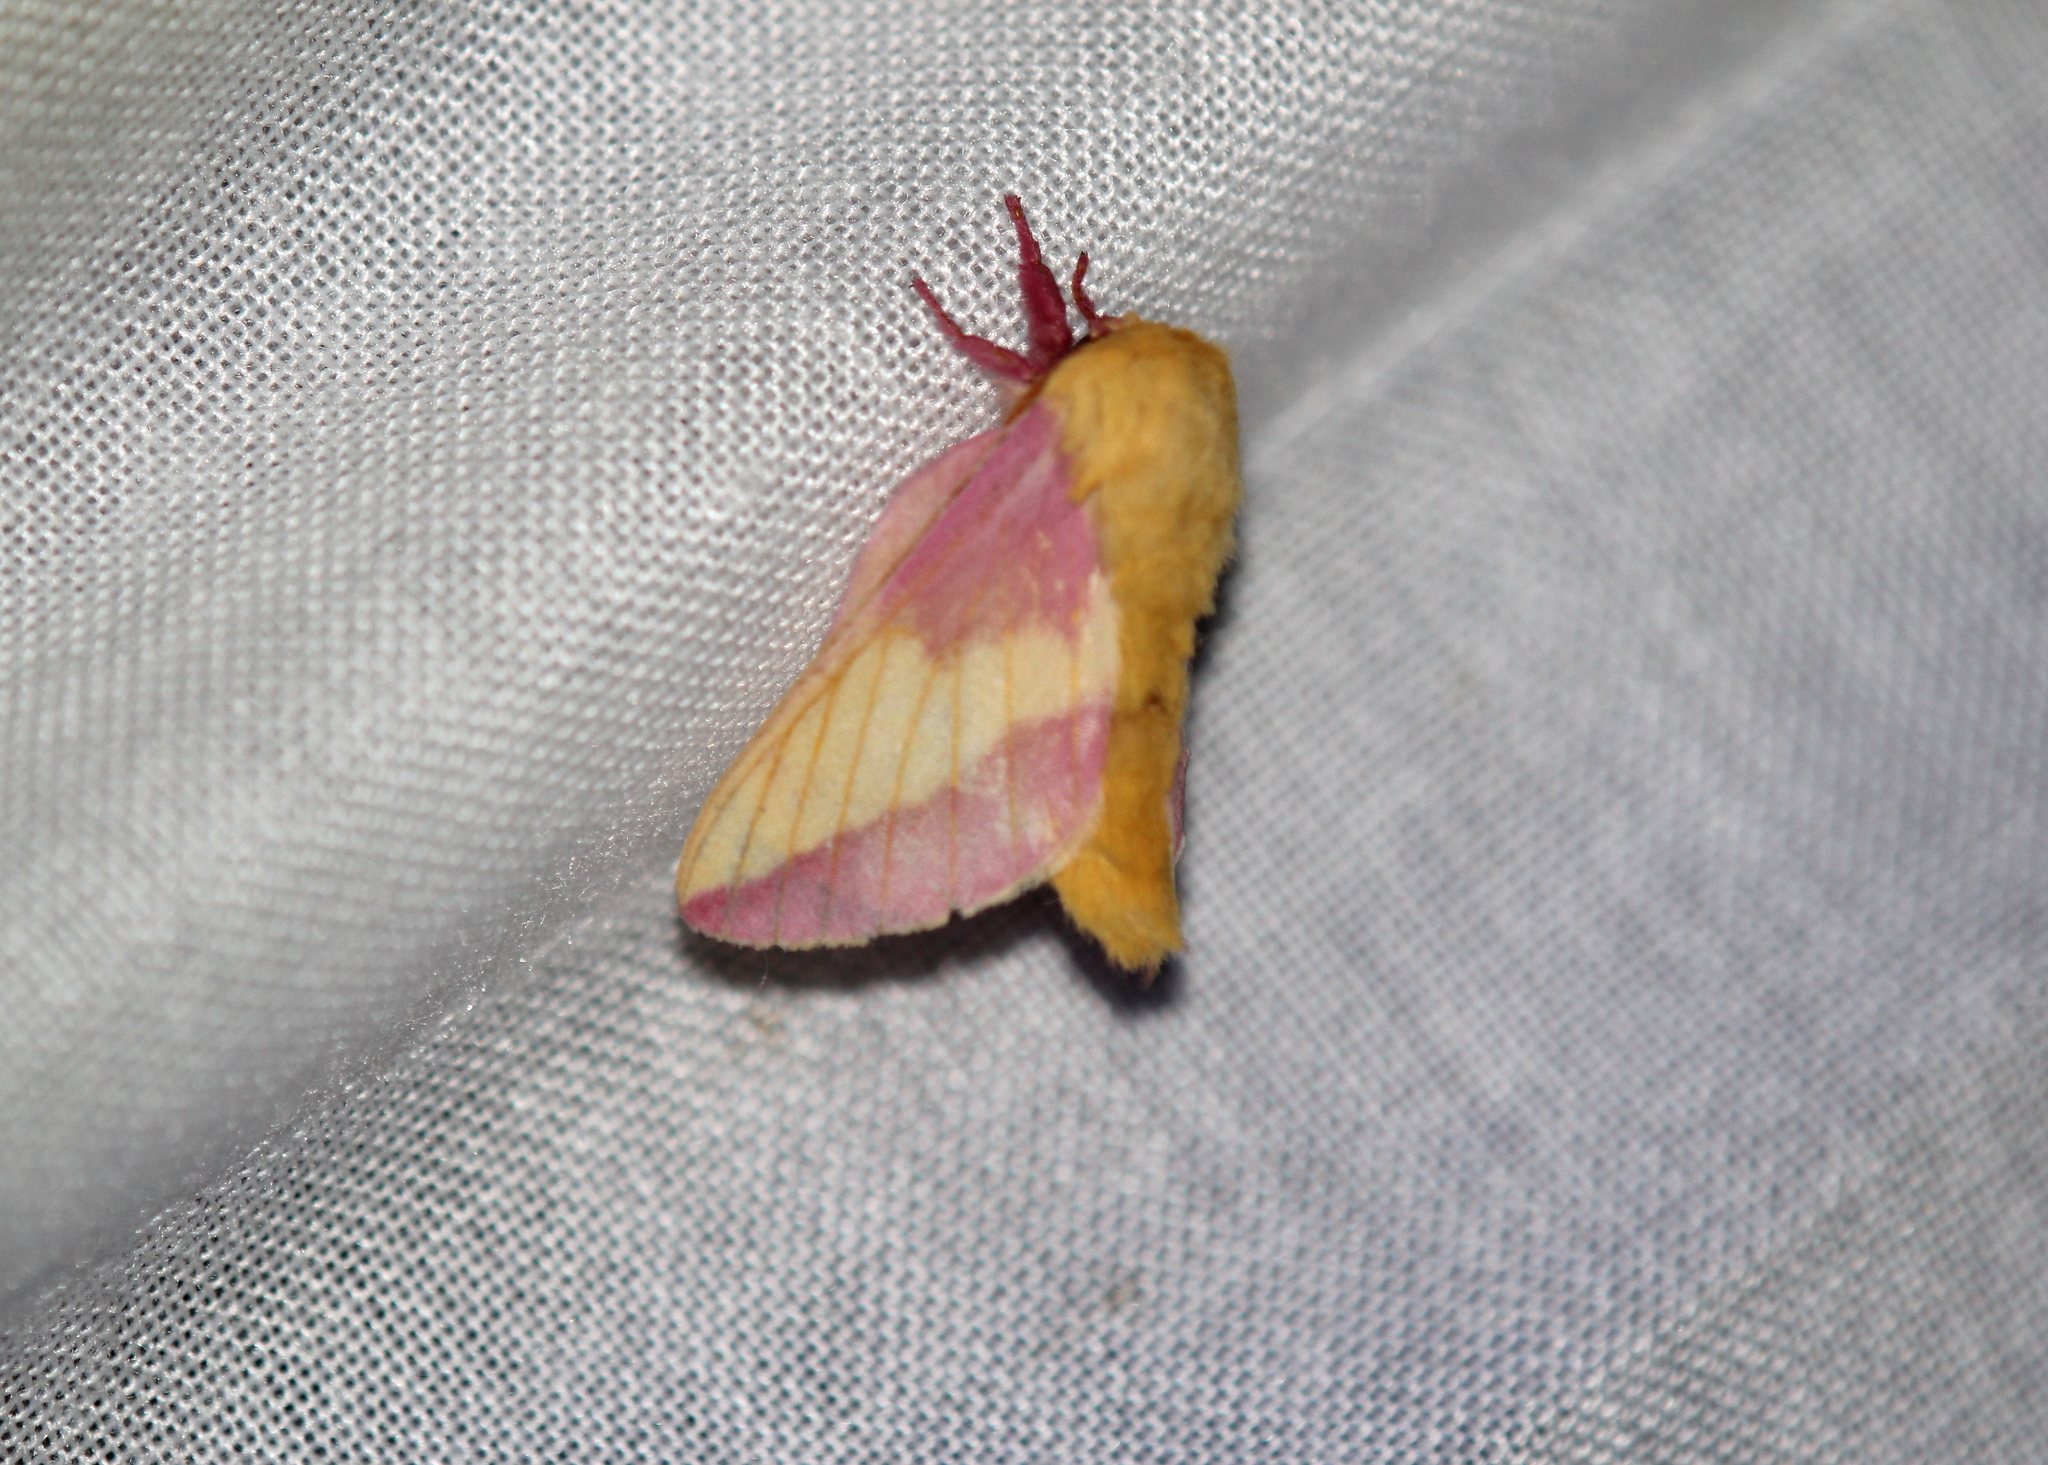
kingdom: Animalia
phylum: Arthropoda
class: Insecta
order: Lepidoptera
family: Saturniidae
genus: Dryocampa
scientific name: Dryocampa rubicunda
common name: Rosy maple moth
